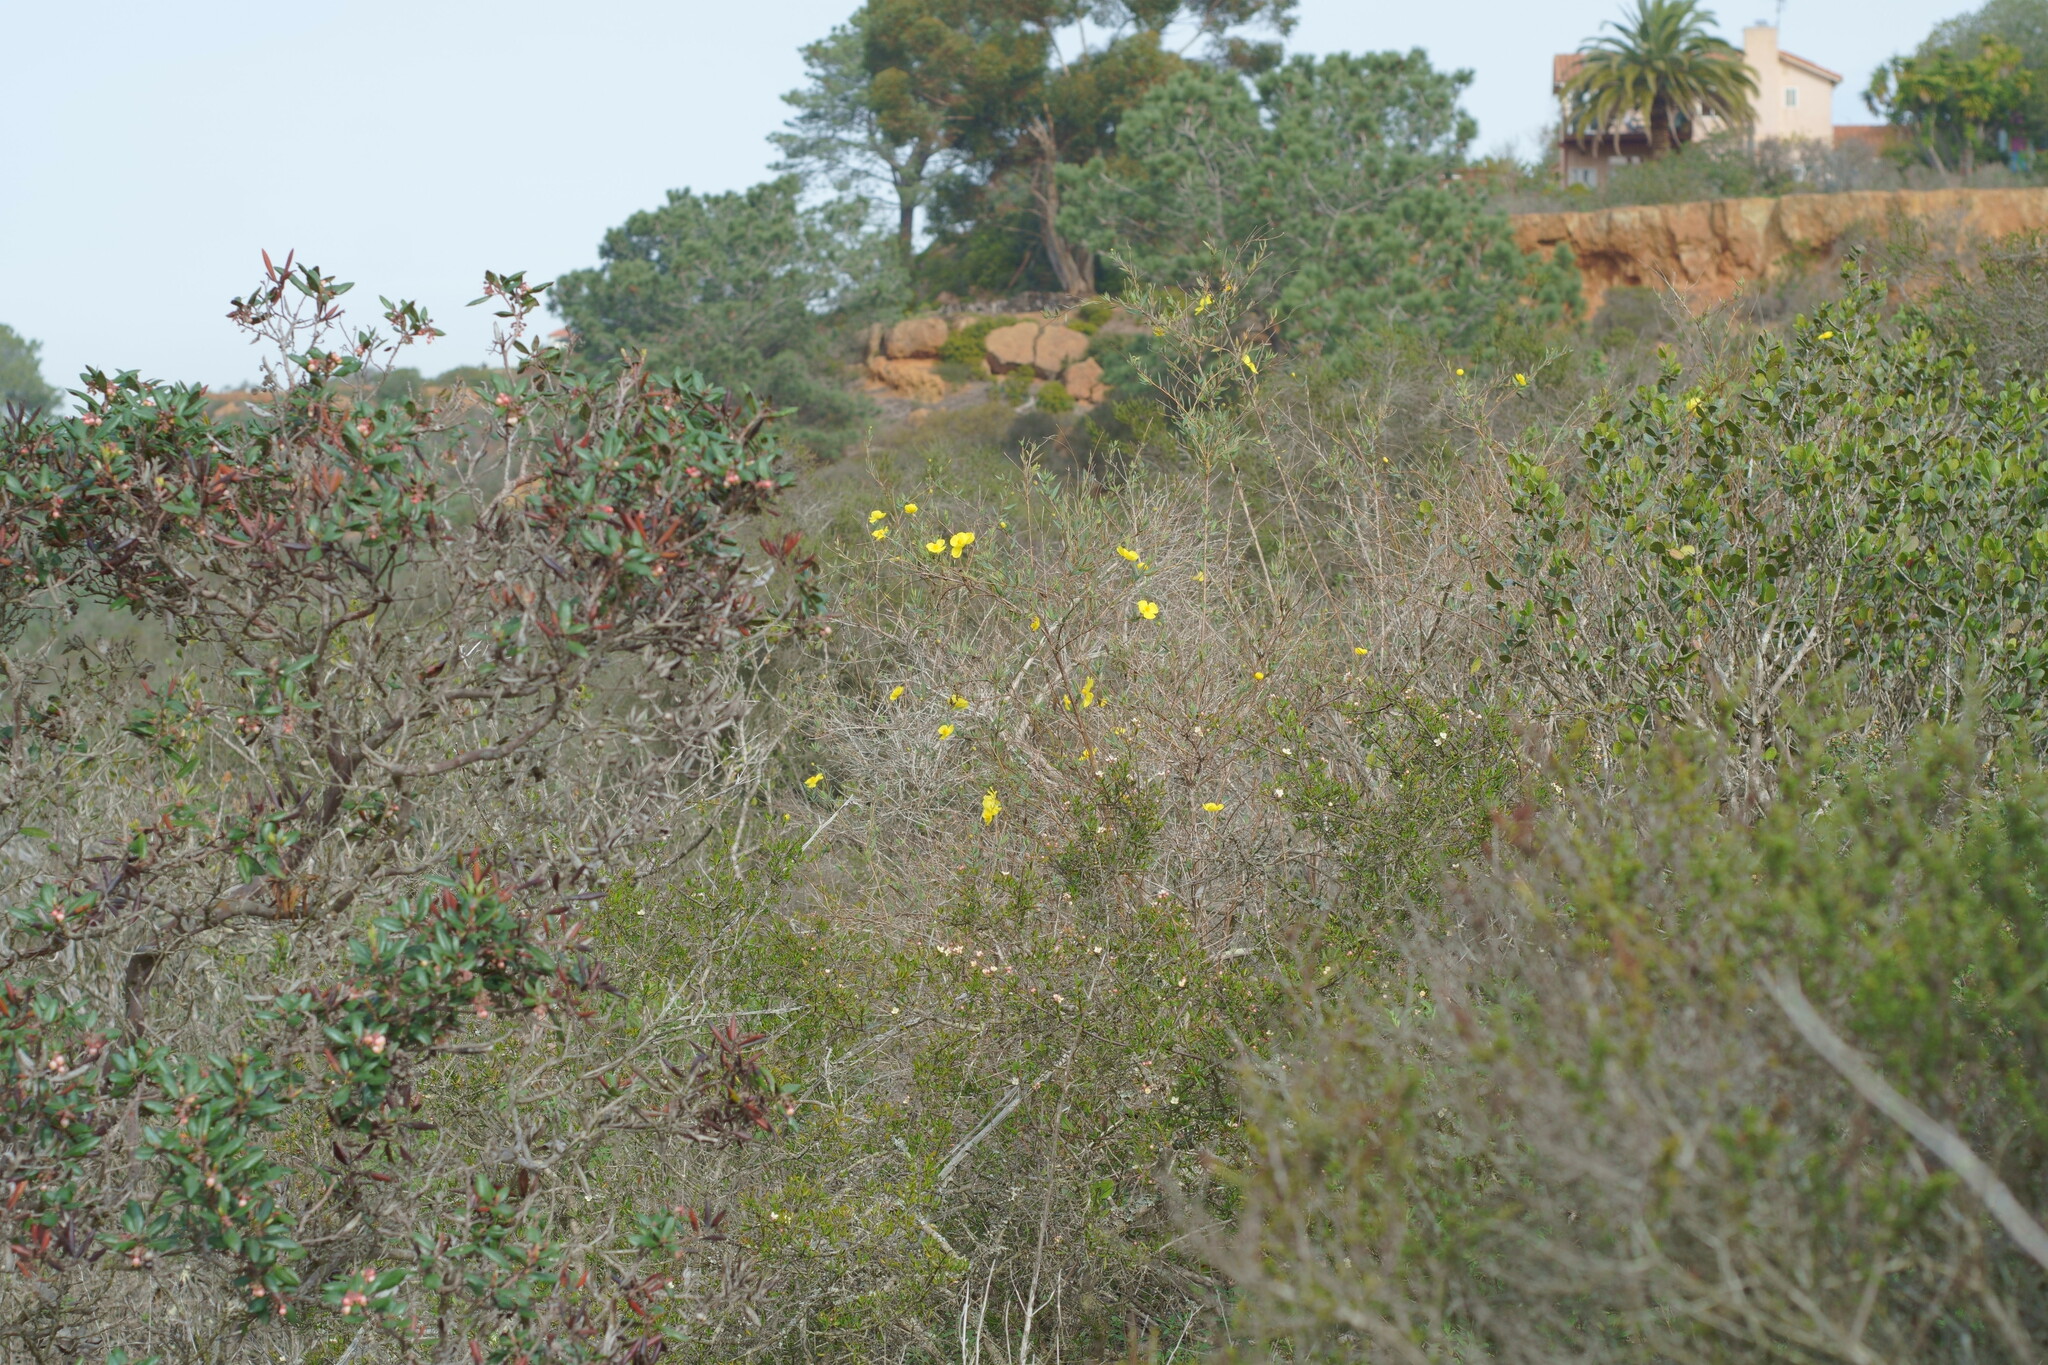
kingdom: Plantae
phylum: Tracheophyta
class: Magnoliopsida
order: Ranunculales
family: Papaveraceae
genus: Dendromecon
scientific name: Dendromecon rigida
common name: Tree poppy
